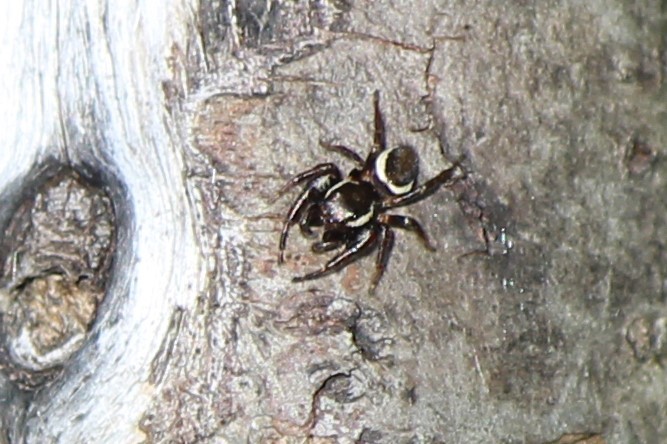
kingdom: Animalia
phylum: Arthropoda
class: Arachnida
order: Araneae
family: Salticidae
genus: Eris
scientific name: Eris militaris
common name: Bronze jumper
